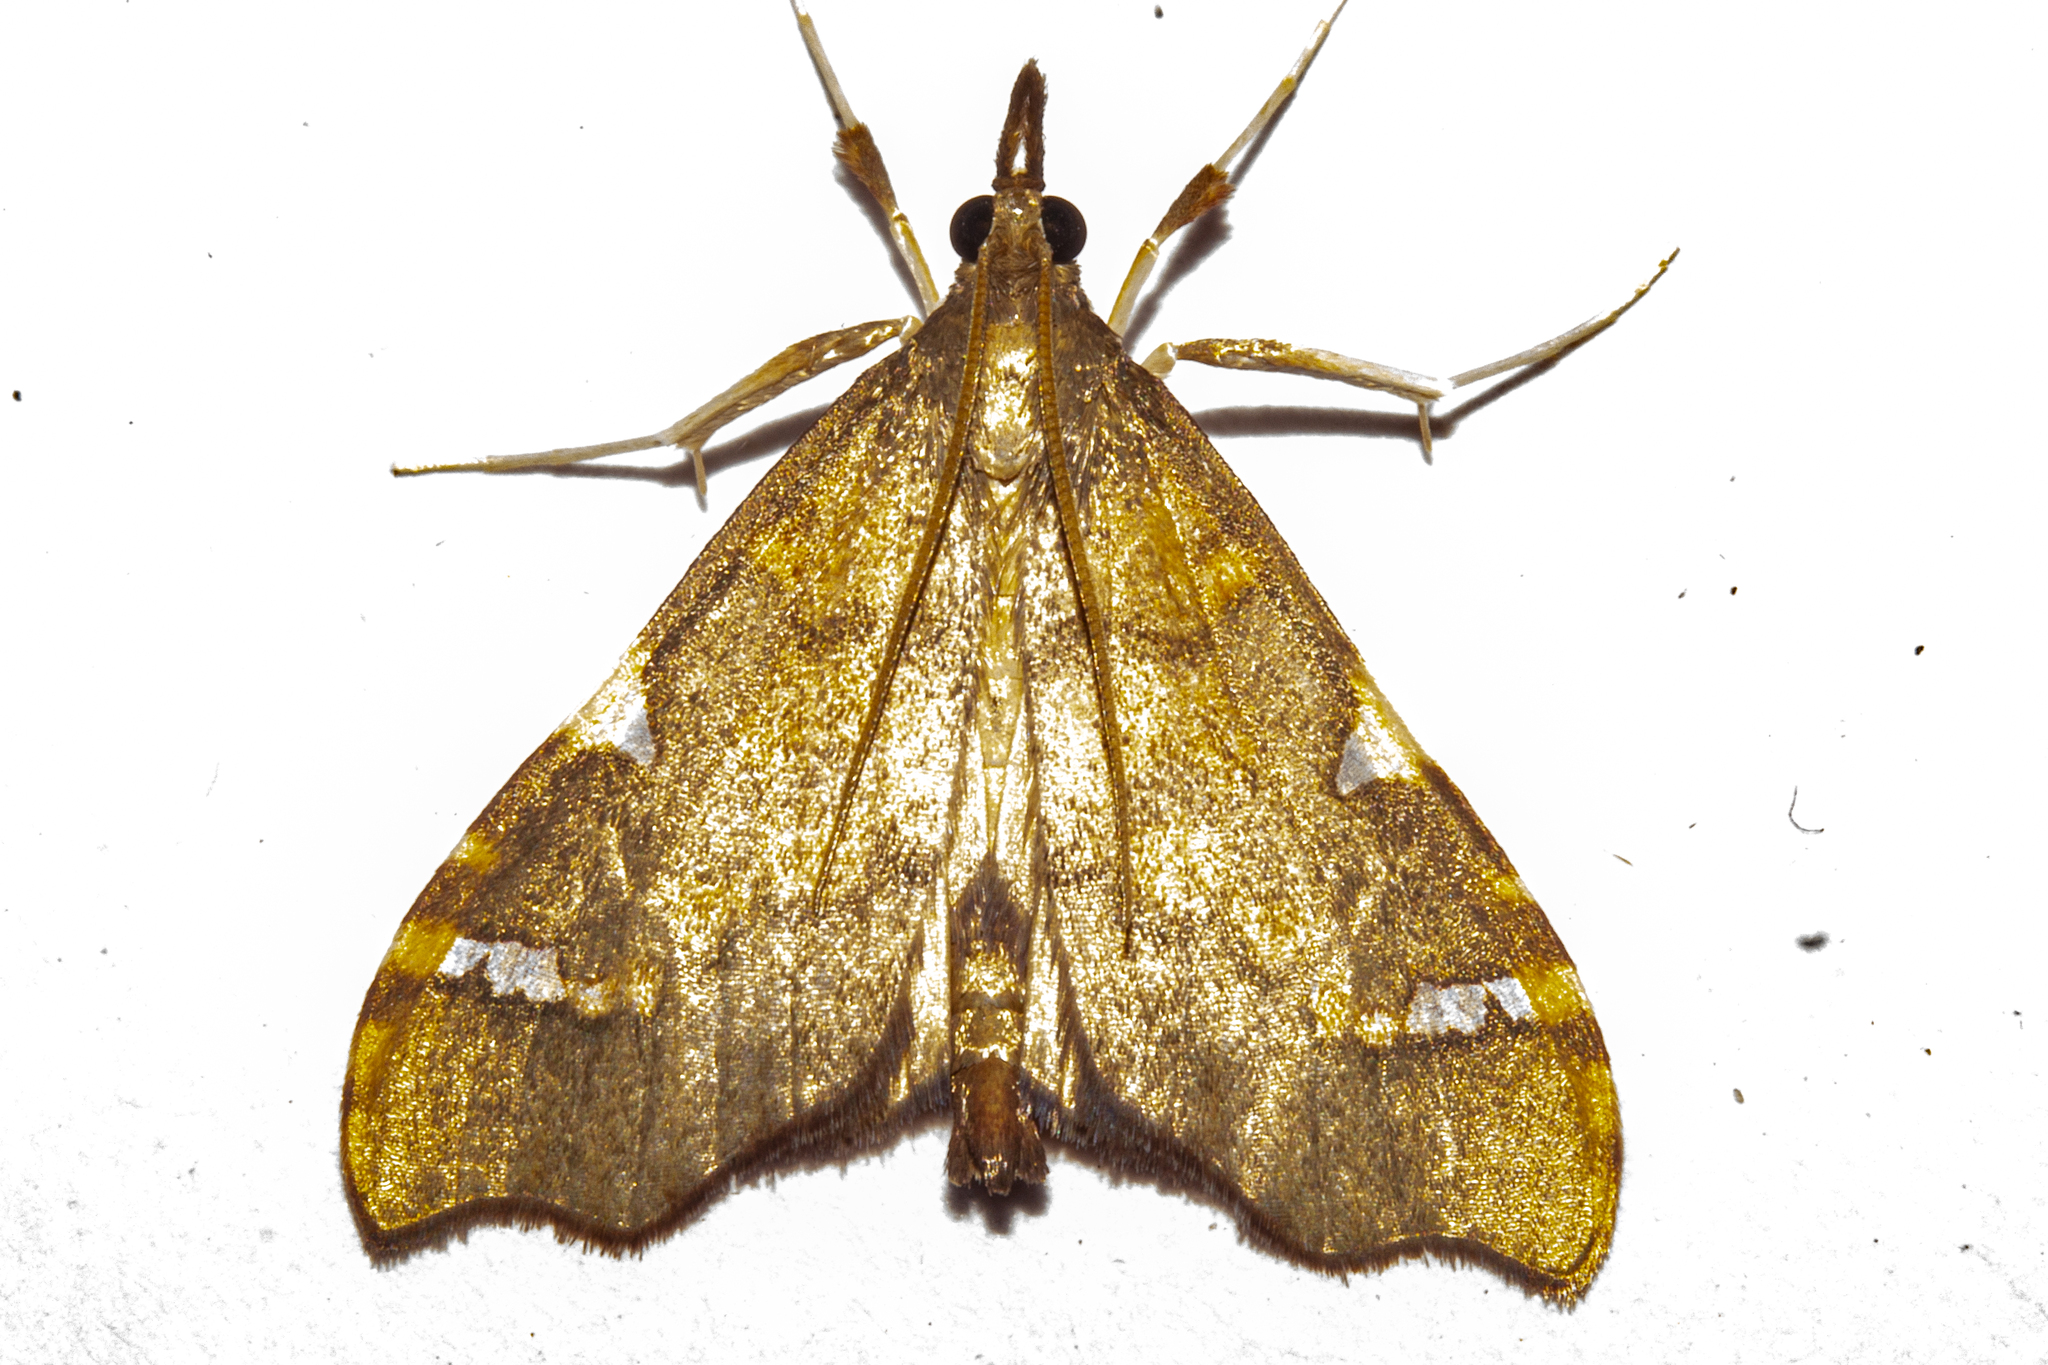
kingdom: Animalia
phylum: Arthropoda
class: Insecta
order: Lepidoptera
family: Crambidae
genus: Deana
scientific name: Deana hybreasalis
